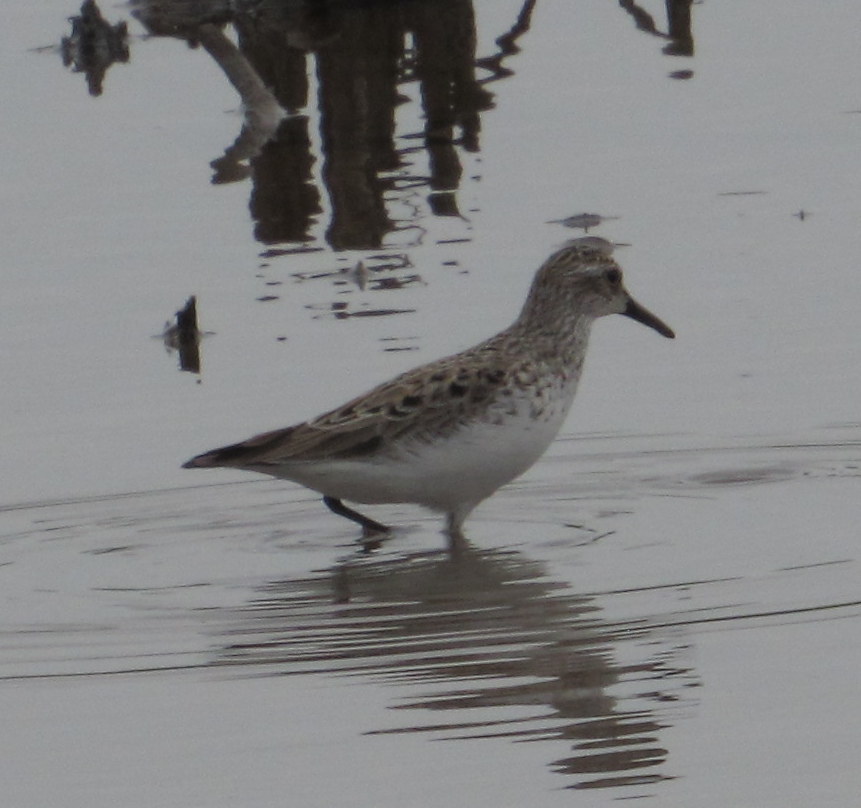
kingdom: Animalia
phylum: Chordata
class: Aves
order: Charadriiformes
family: Scolopacidae
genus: Calidris
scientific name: Calidris pusilla
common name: Semipalmated sandpiper
